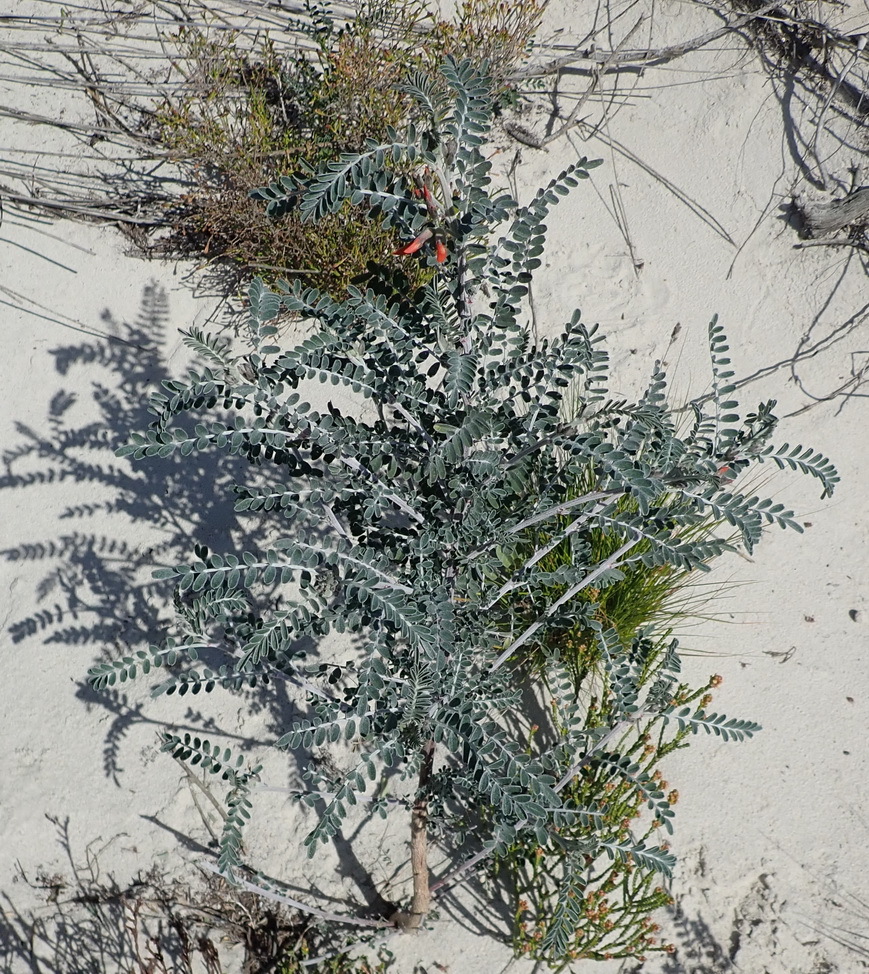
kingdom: Plantae
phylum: Tracheophyta
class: Magnoliopsida
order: Fabales
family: Fabaceae
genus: Lessertia
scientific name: Lessertia canescens
